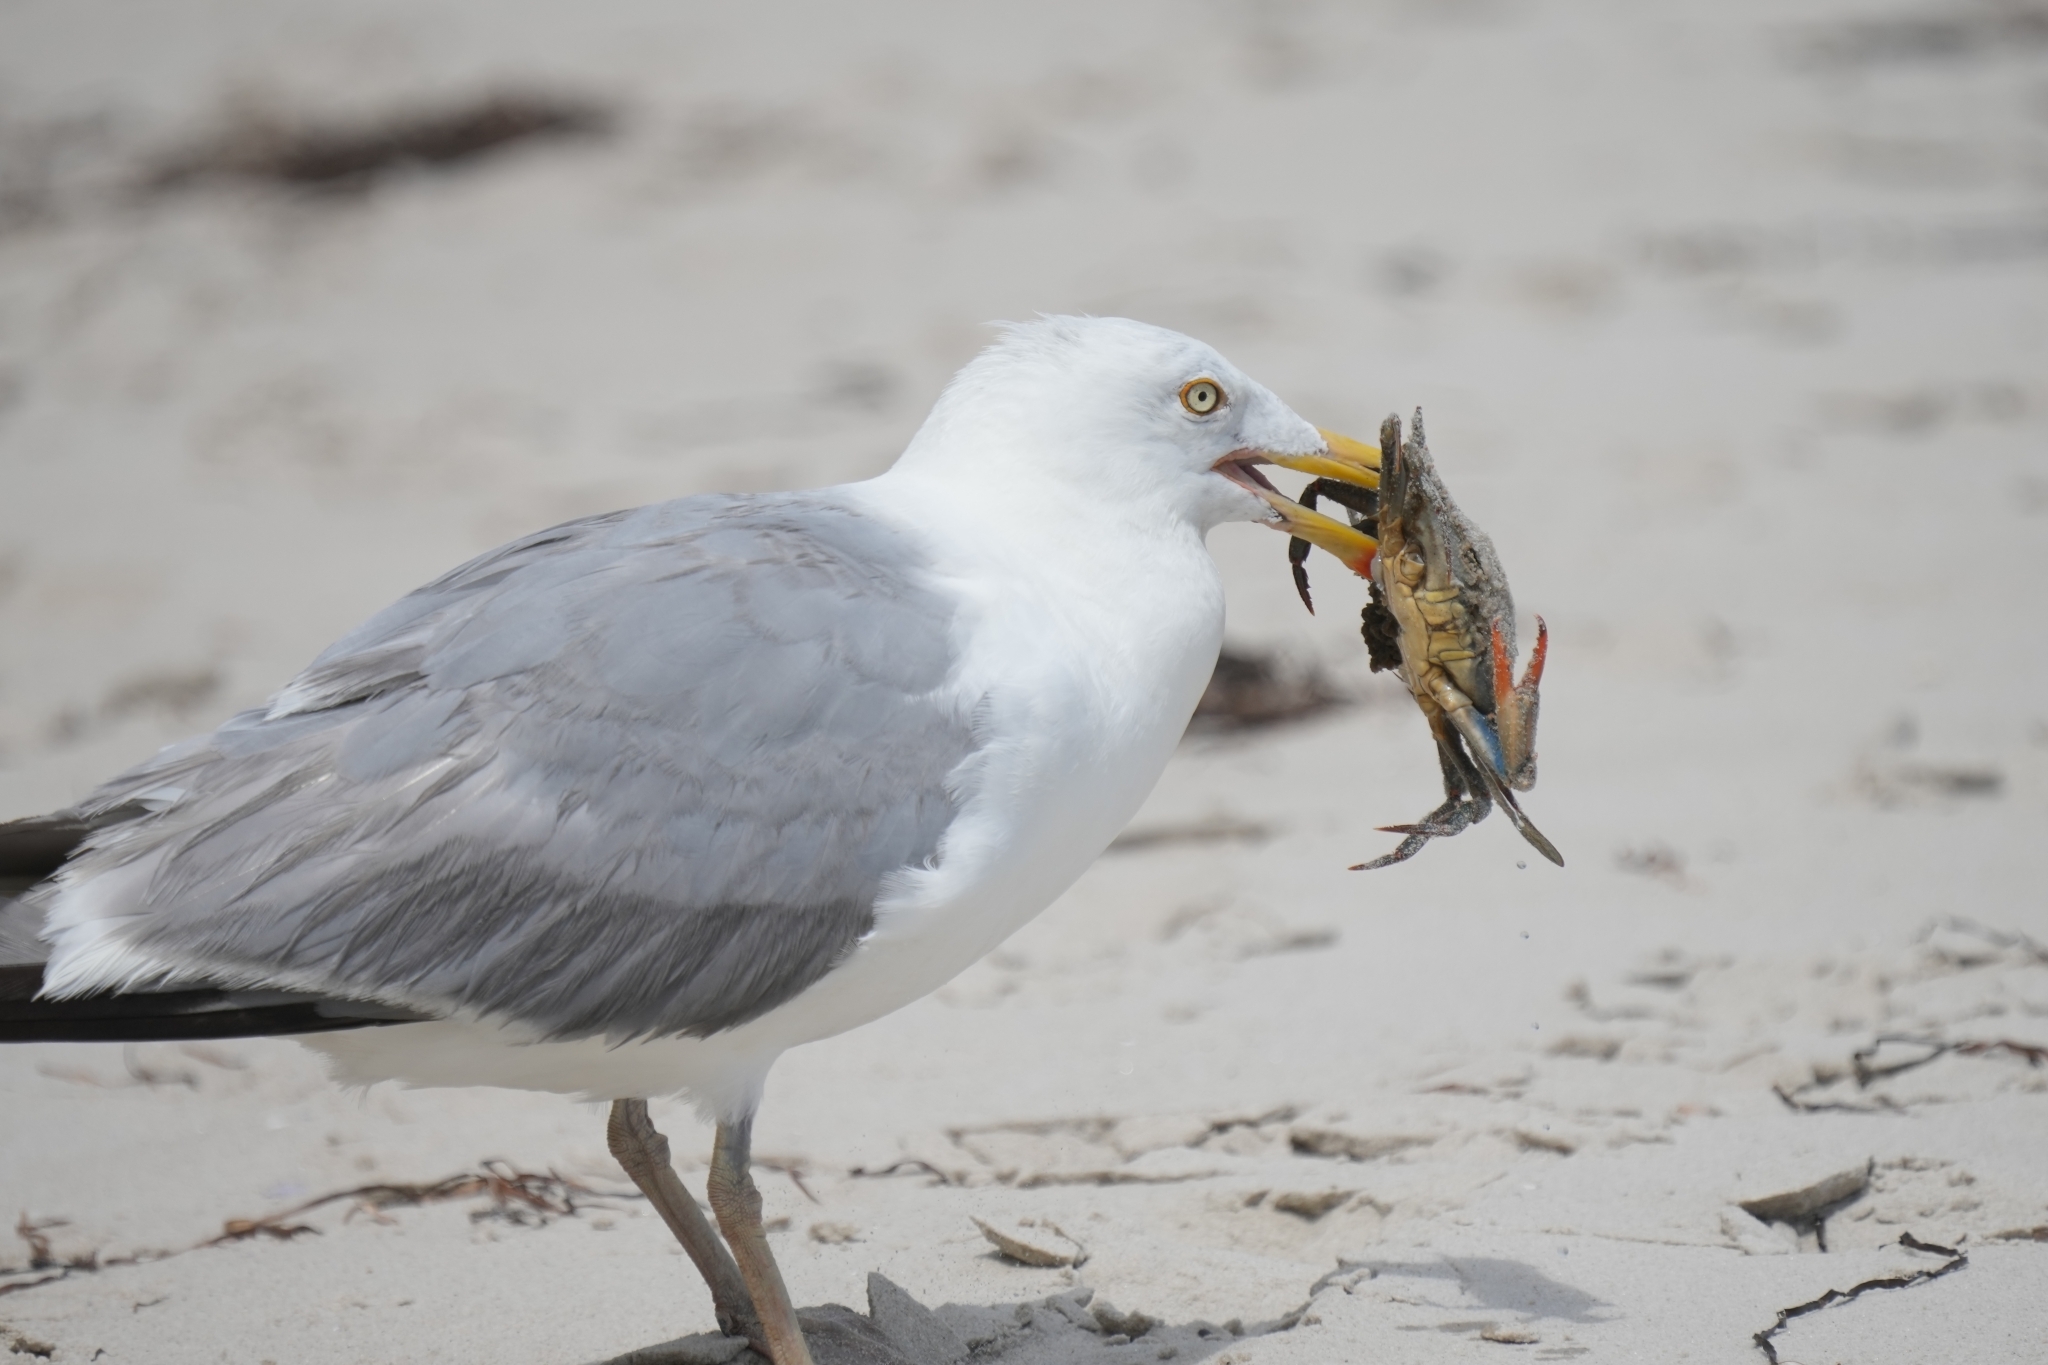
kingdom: Animalia
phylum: Chordata
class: Aves
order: Charadriiformes
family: Laridae
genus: Larus
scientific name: Larus argentatus
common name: Herring gull
